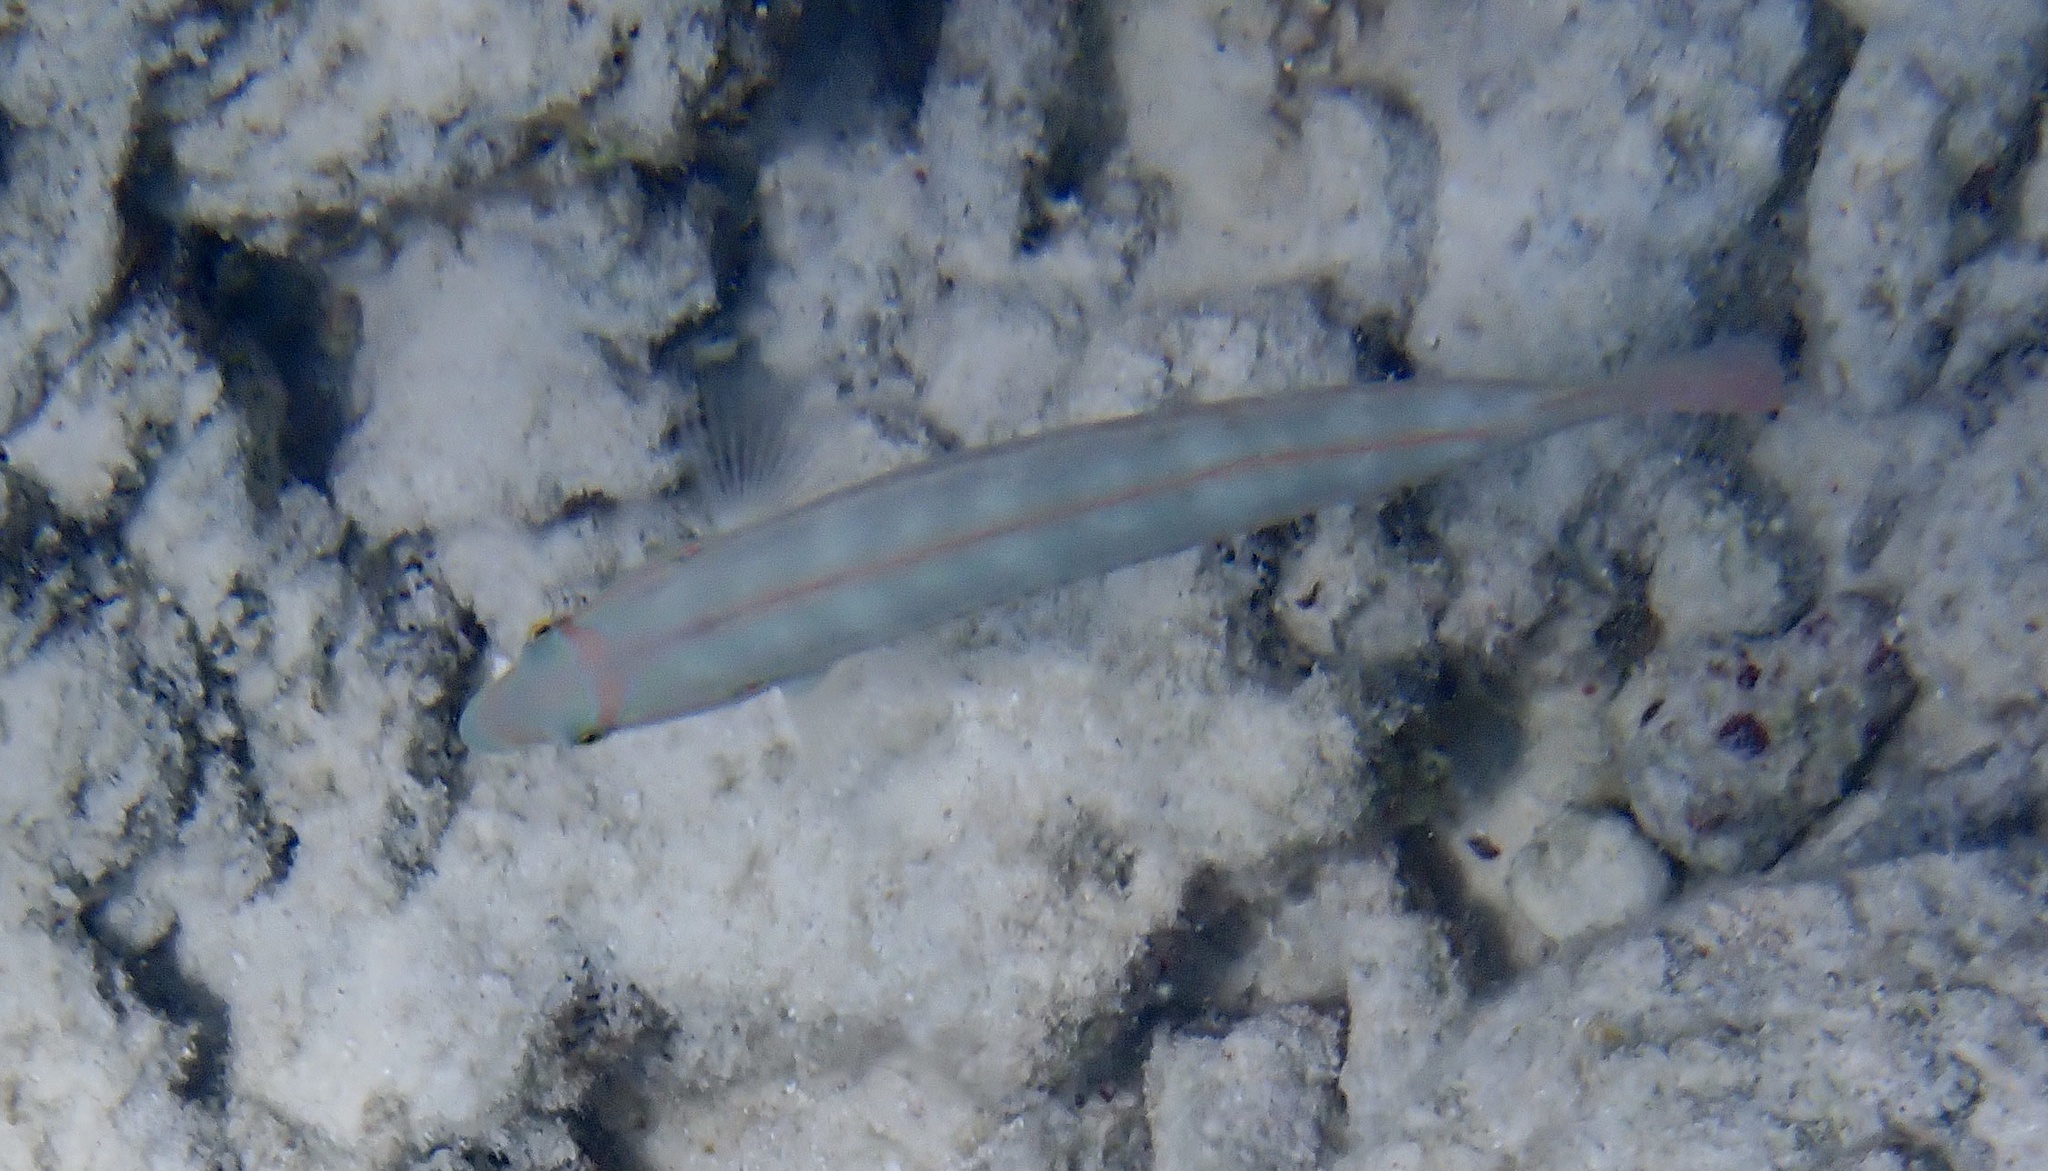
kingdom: Animalia
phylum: Chordata
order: Perciformes
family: Labridae
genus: Halichoeres
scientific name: Halichoeres bivittatus
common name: Slippery dick
